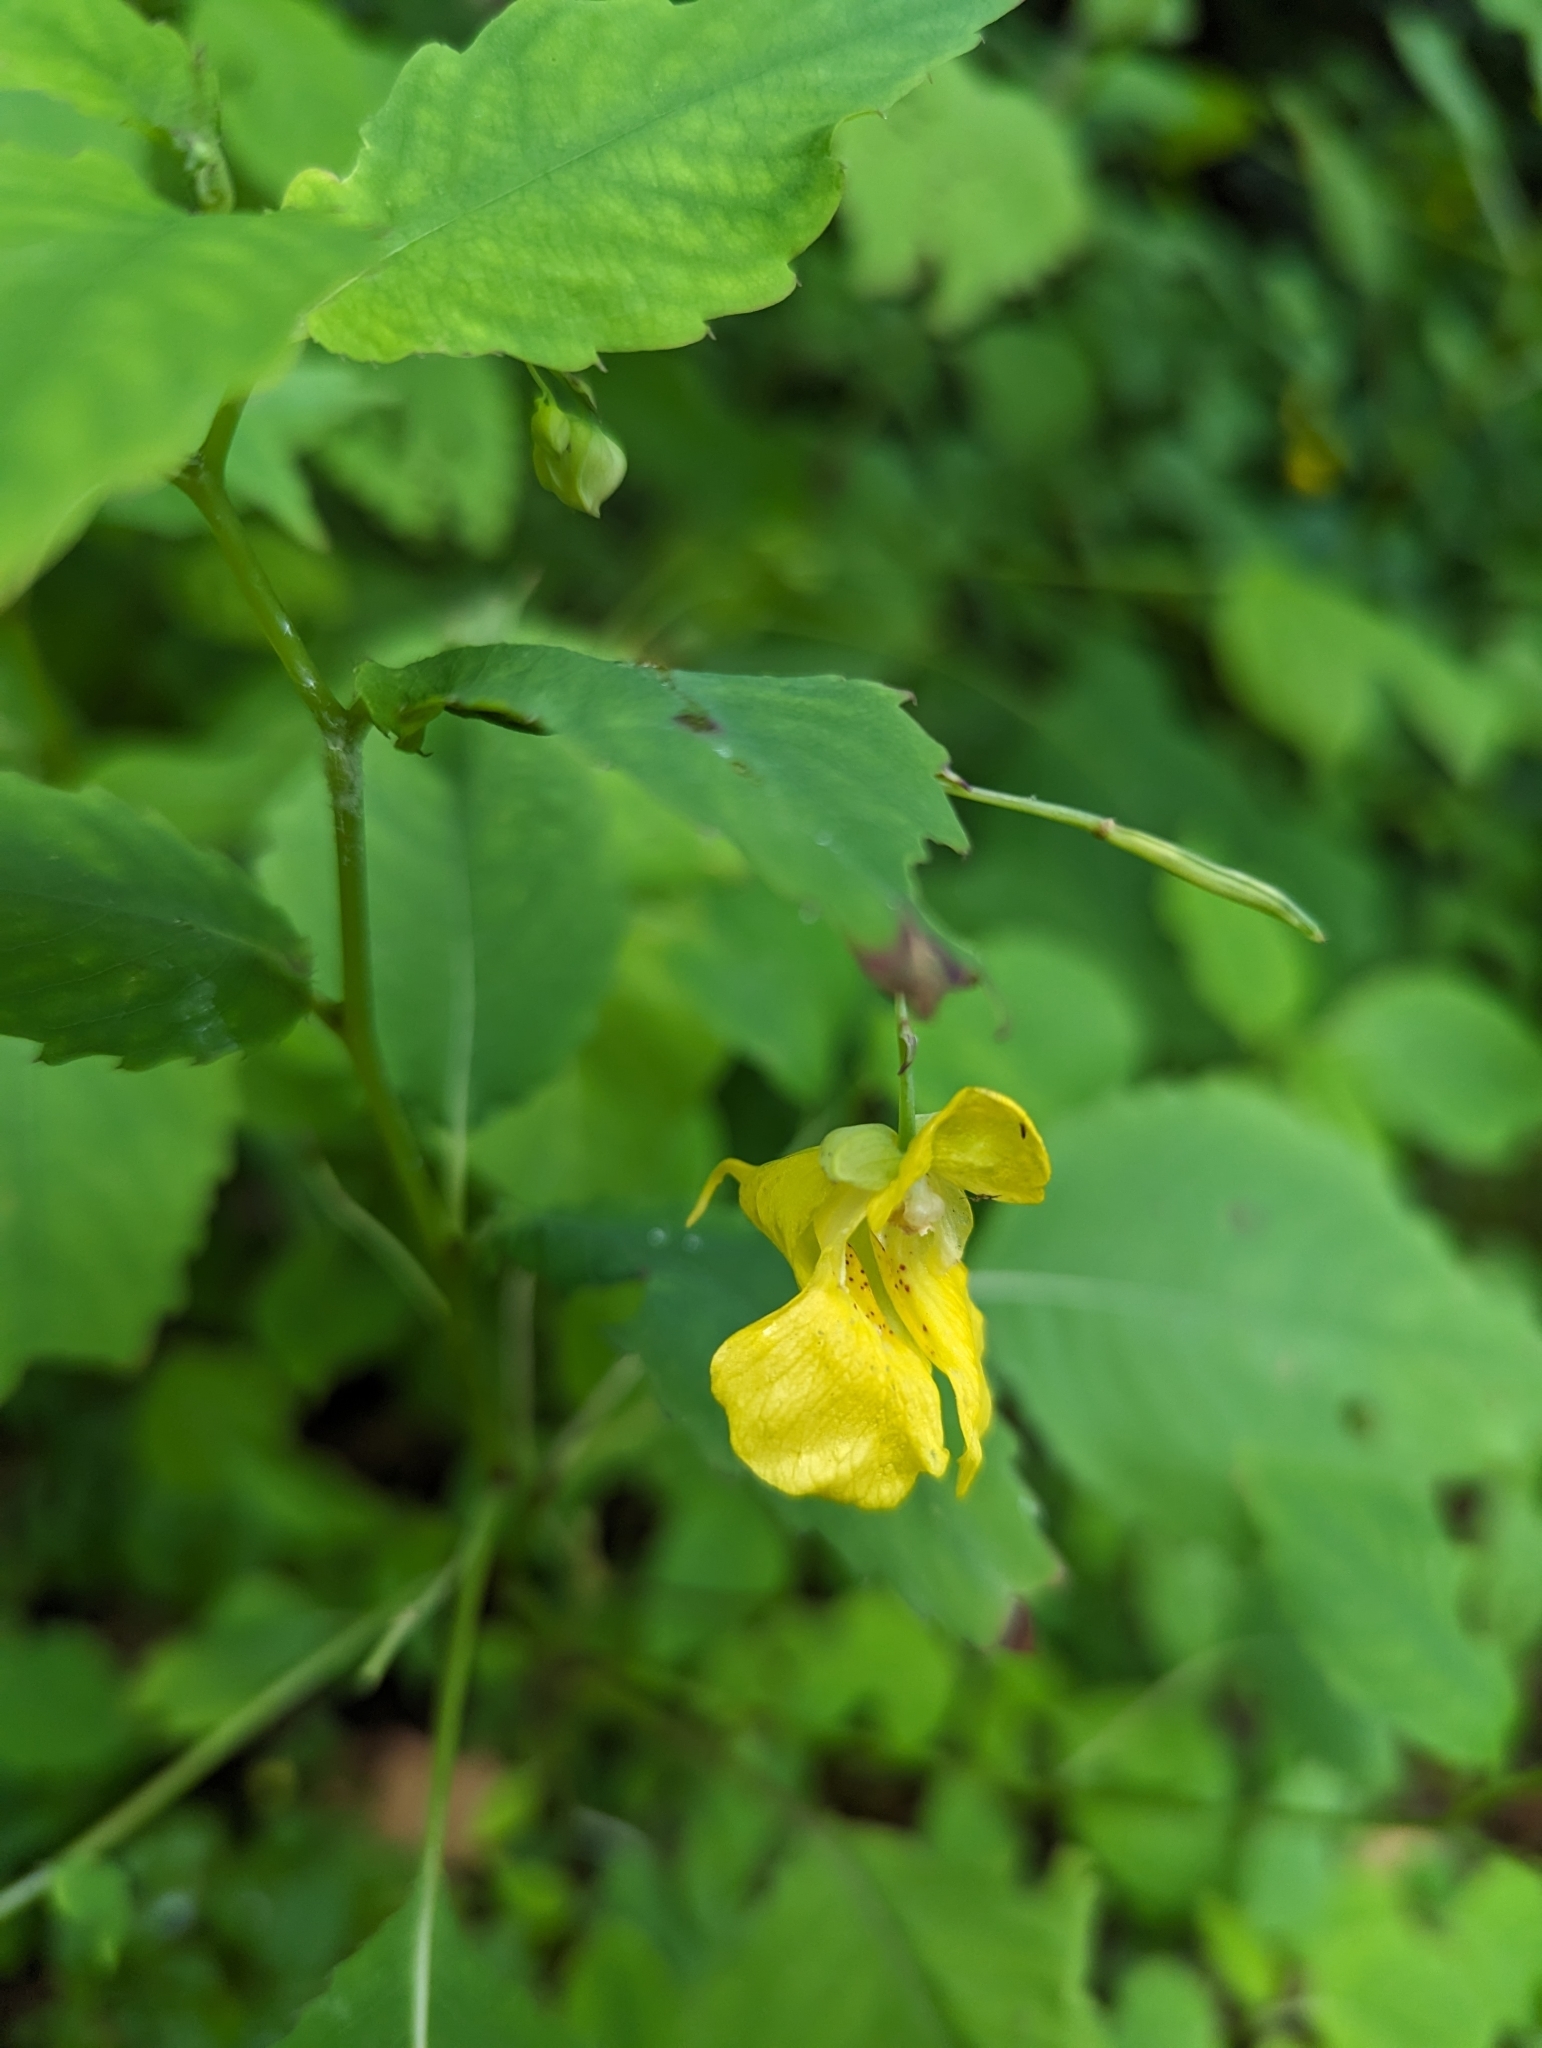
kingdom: Plantae
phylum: Tracheophyta
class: Magnoliopsida
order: Ericales
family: Balsaminaceae
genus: Impatiens
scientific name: Impatiens pallida
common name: Pale snapweed
